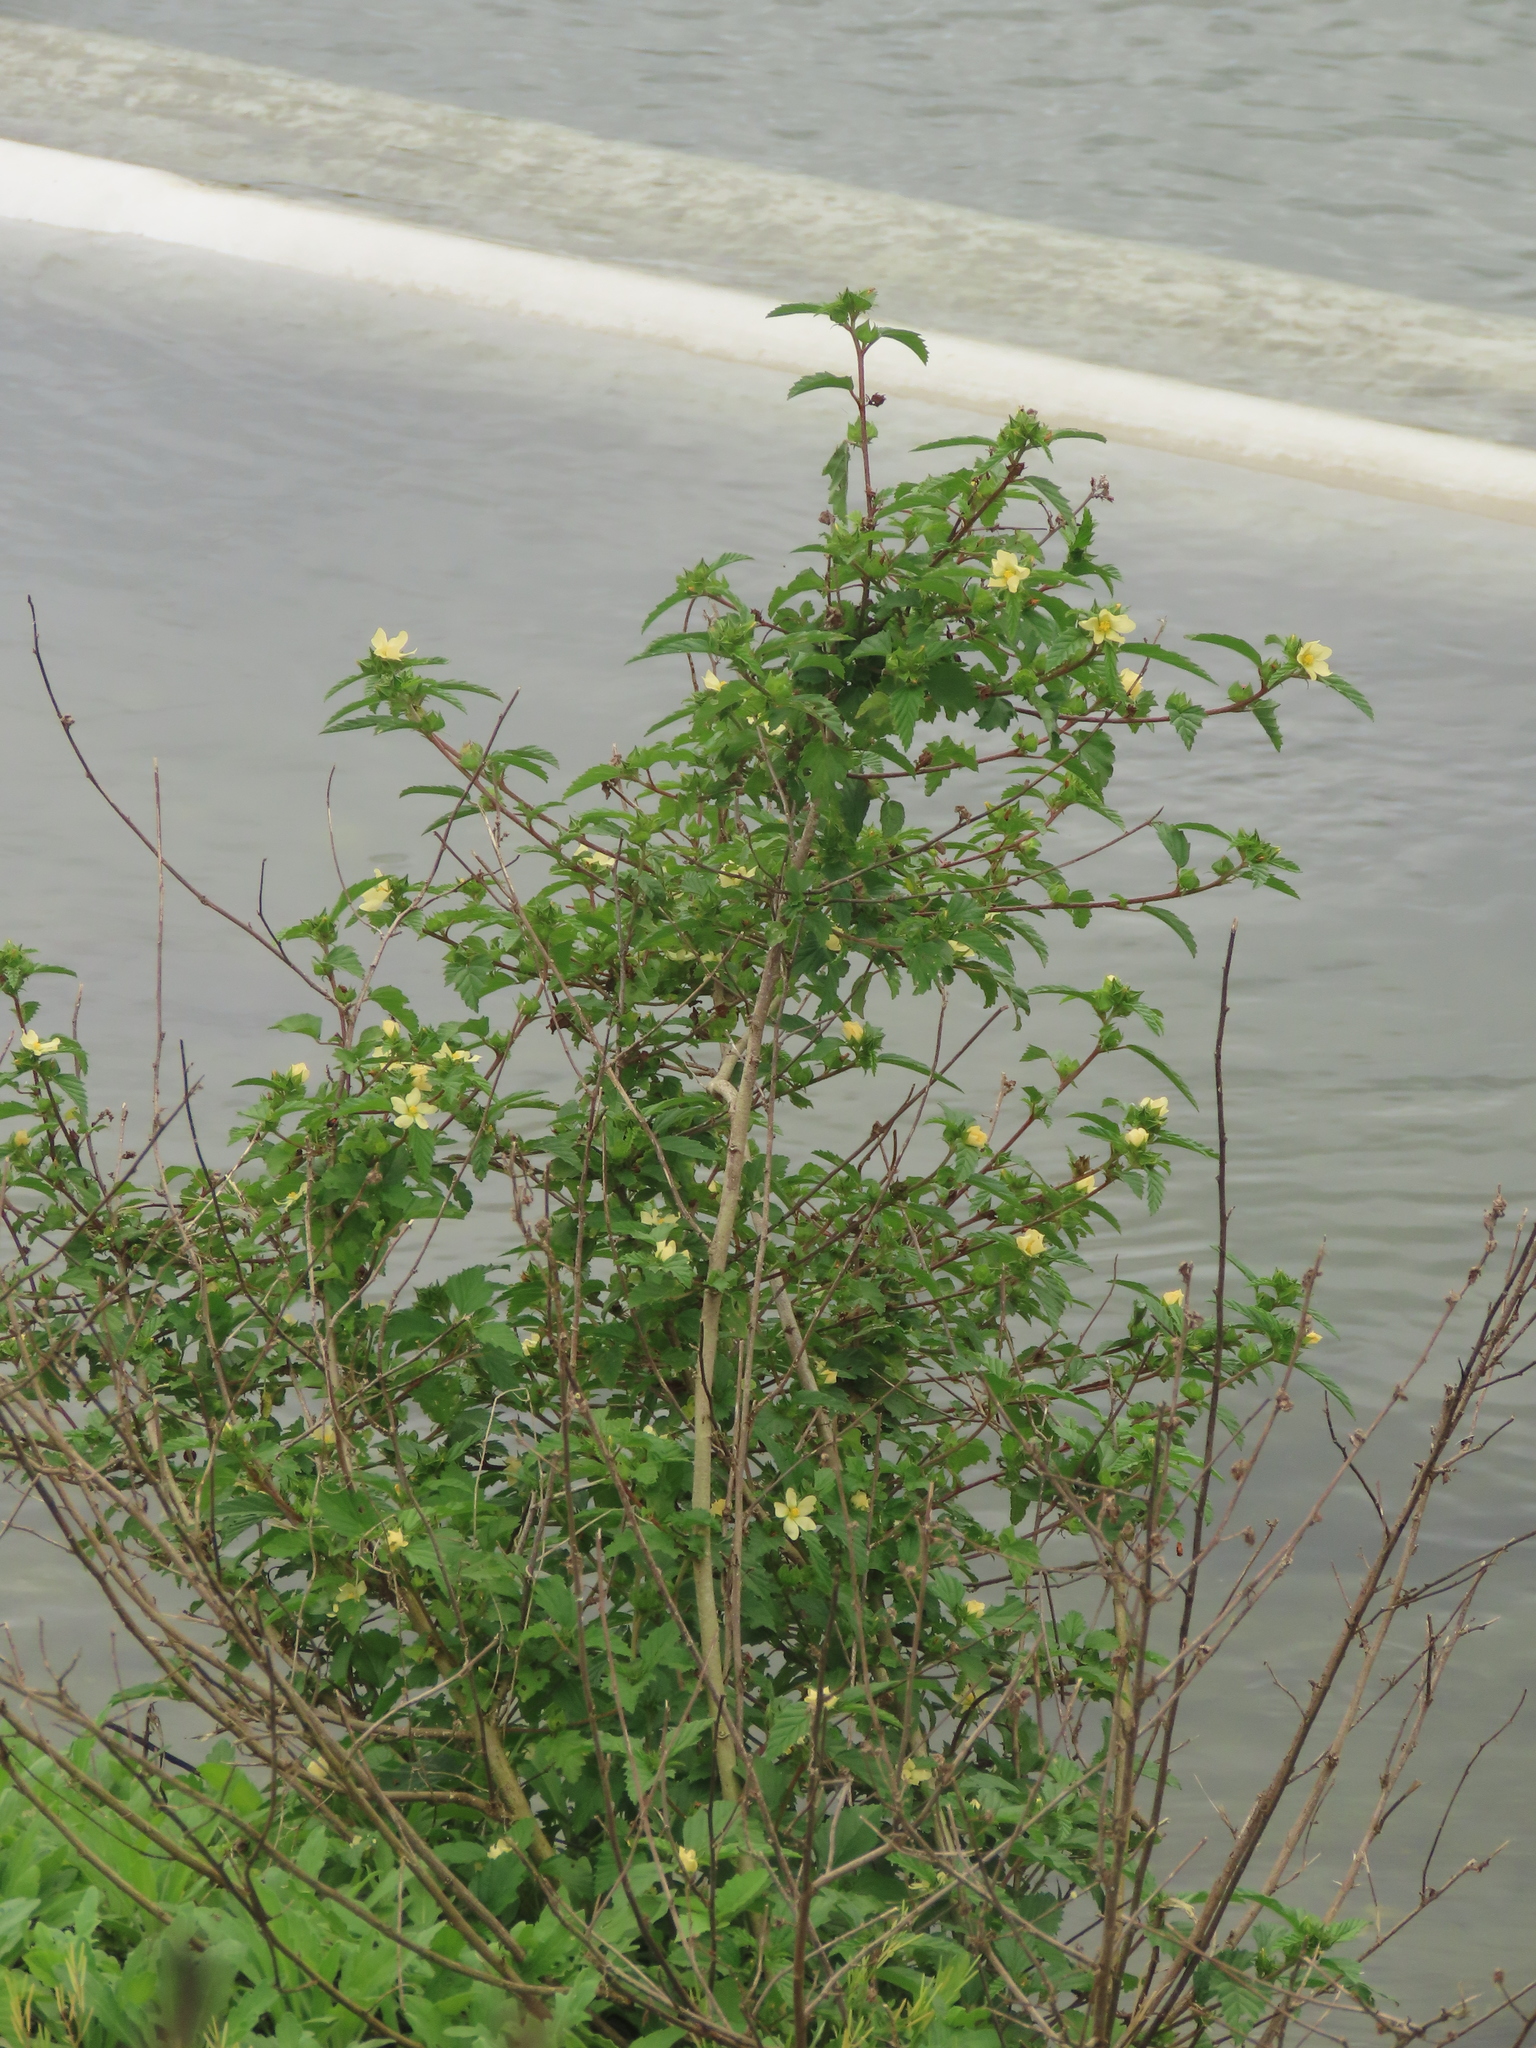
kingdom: Plantae
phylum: Tracheophyta
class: Magnoliopsida
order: Malvales
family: Malvaceae
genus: Malvastrum
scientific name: Malvastrum coromandelianum
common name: Threelobe false mallow
